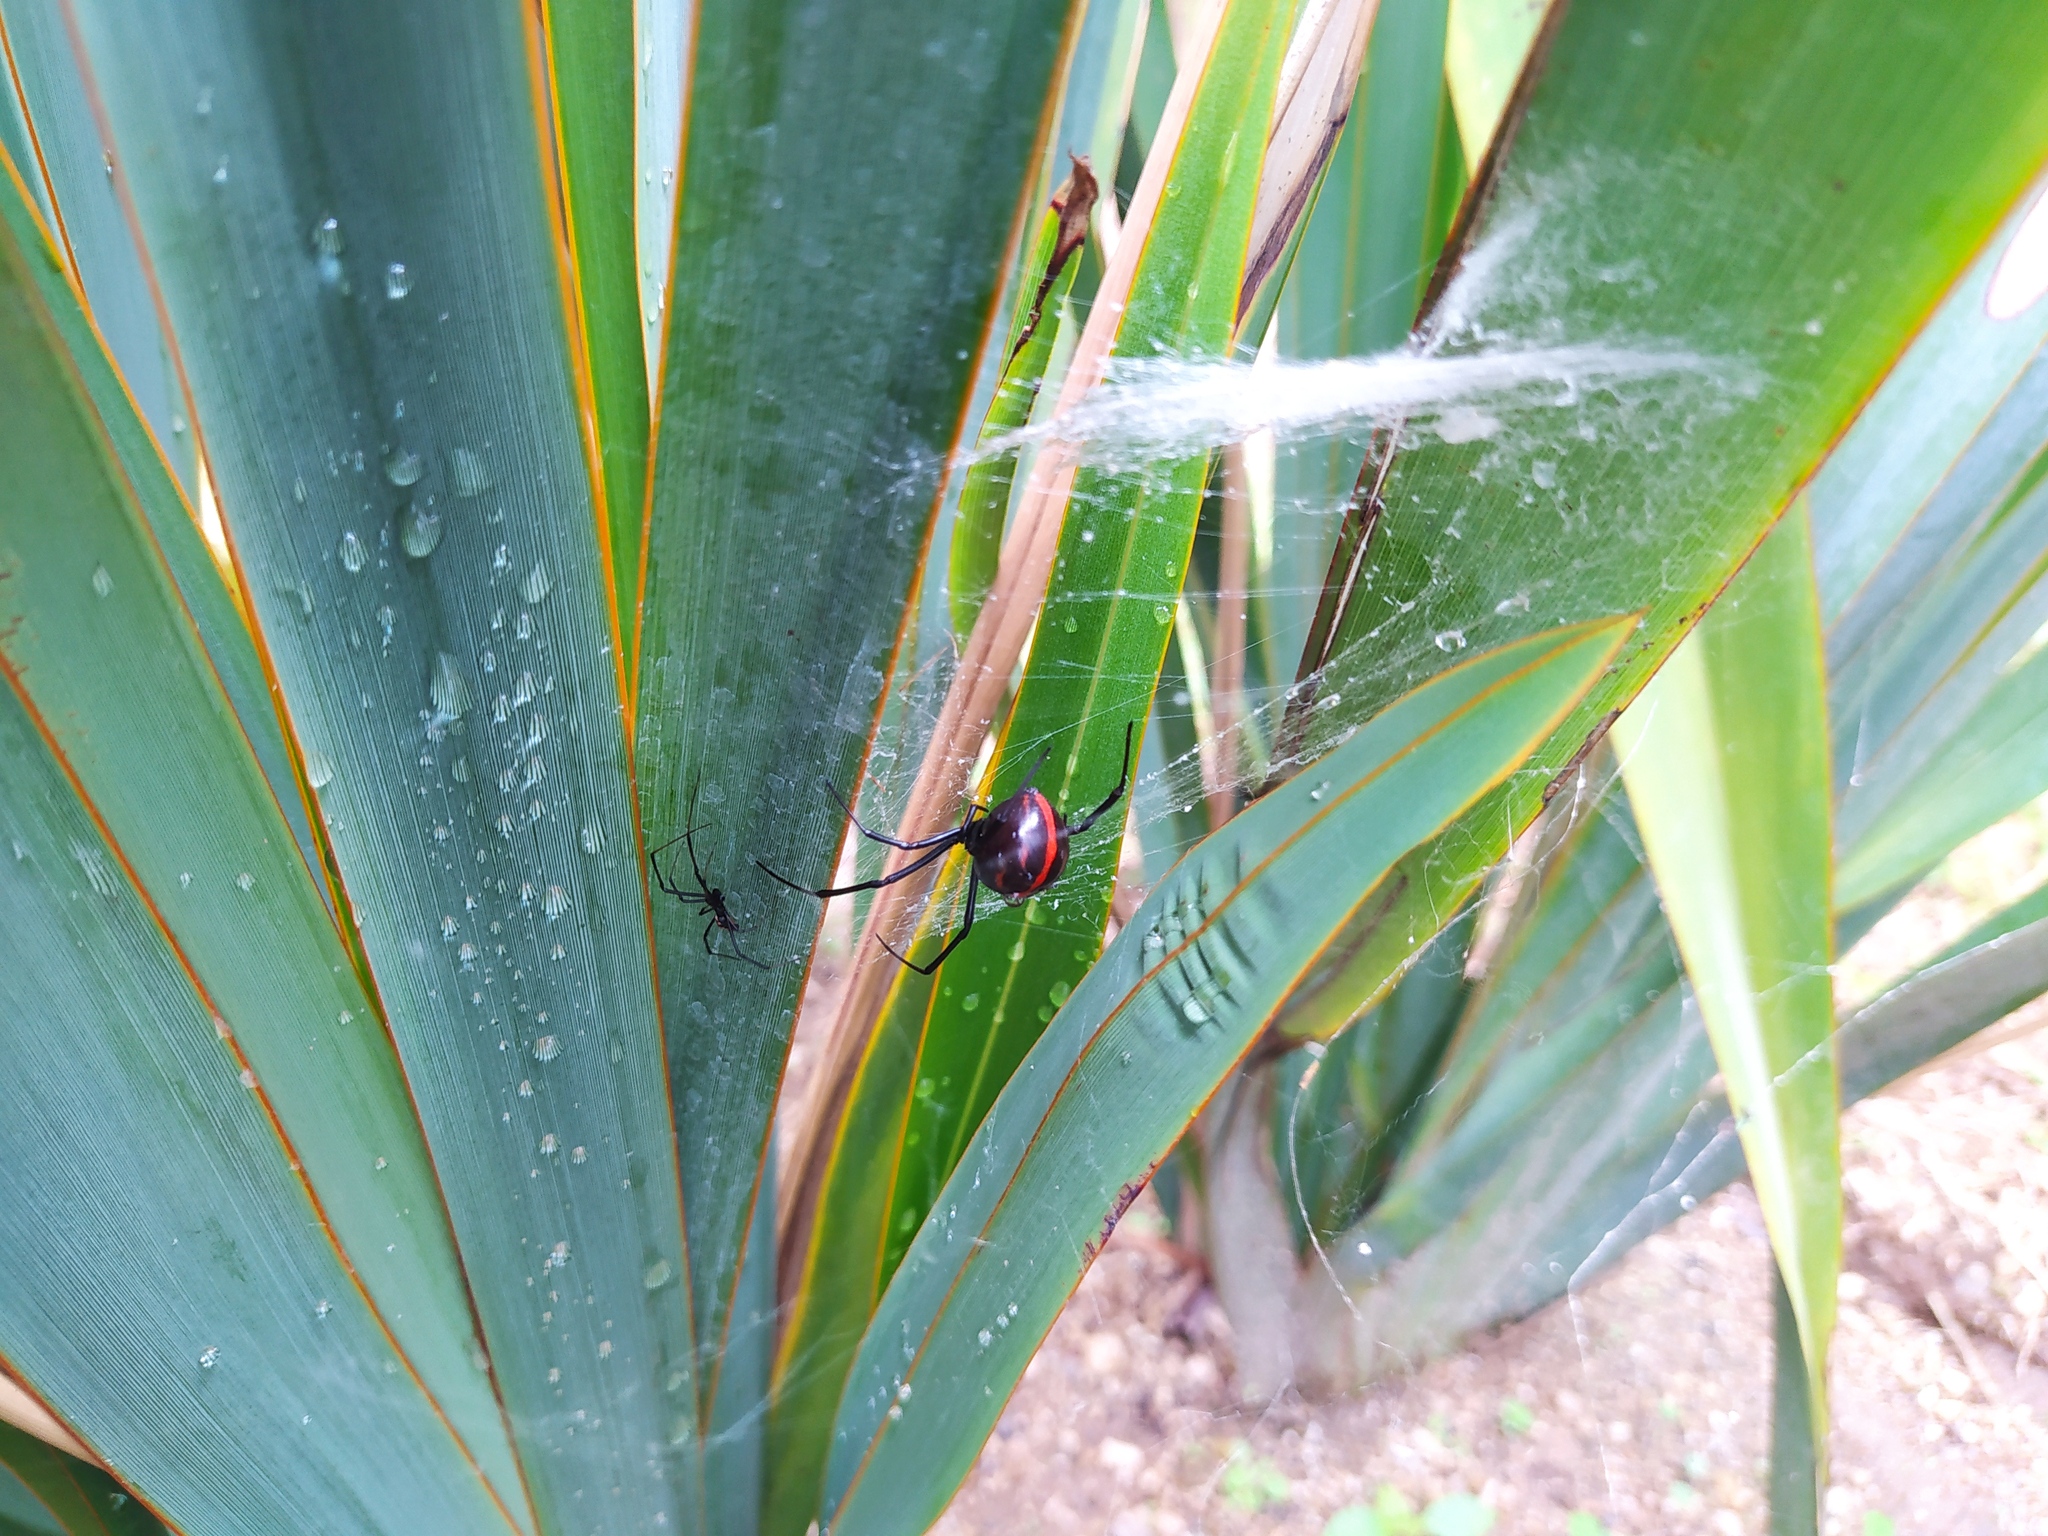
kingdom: Animalia
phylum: Arthropoda
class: Arachnida
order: Araneae
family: Theridiidae
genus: Latrodectus
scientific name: Latrodectus
